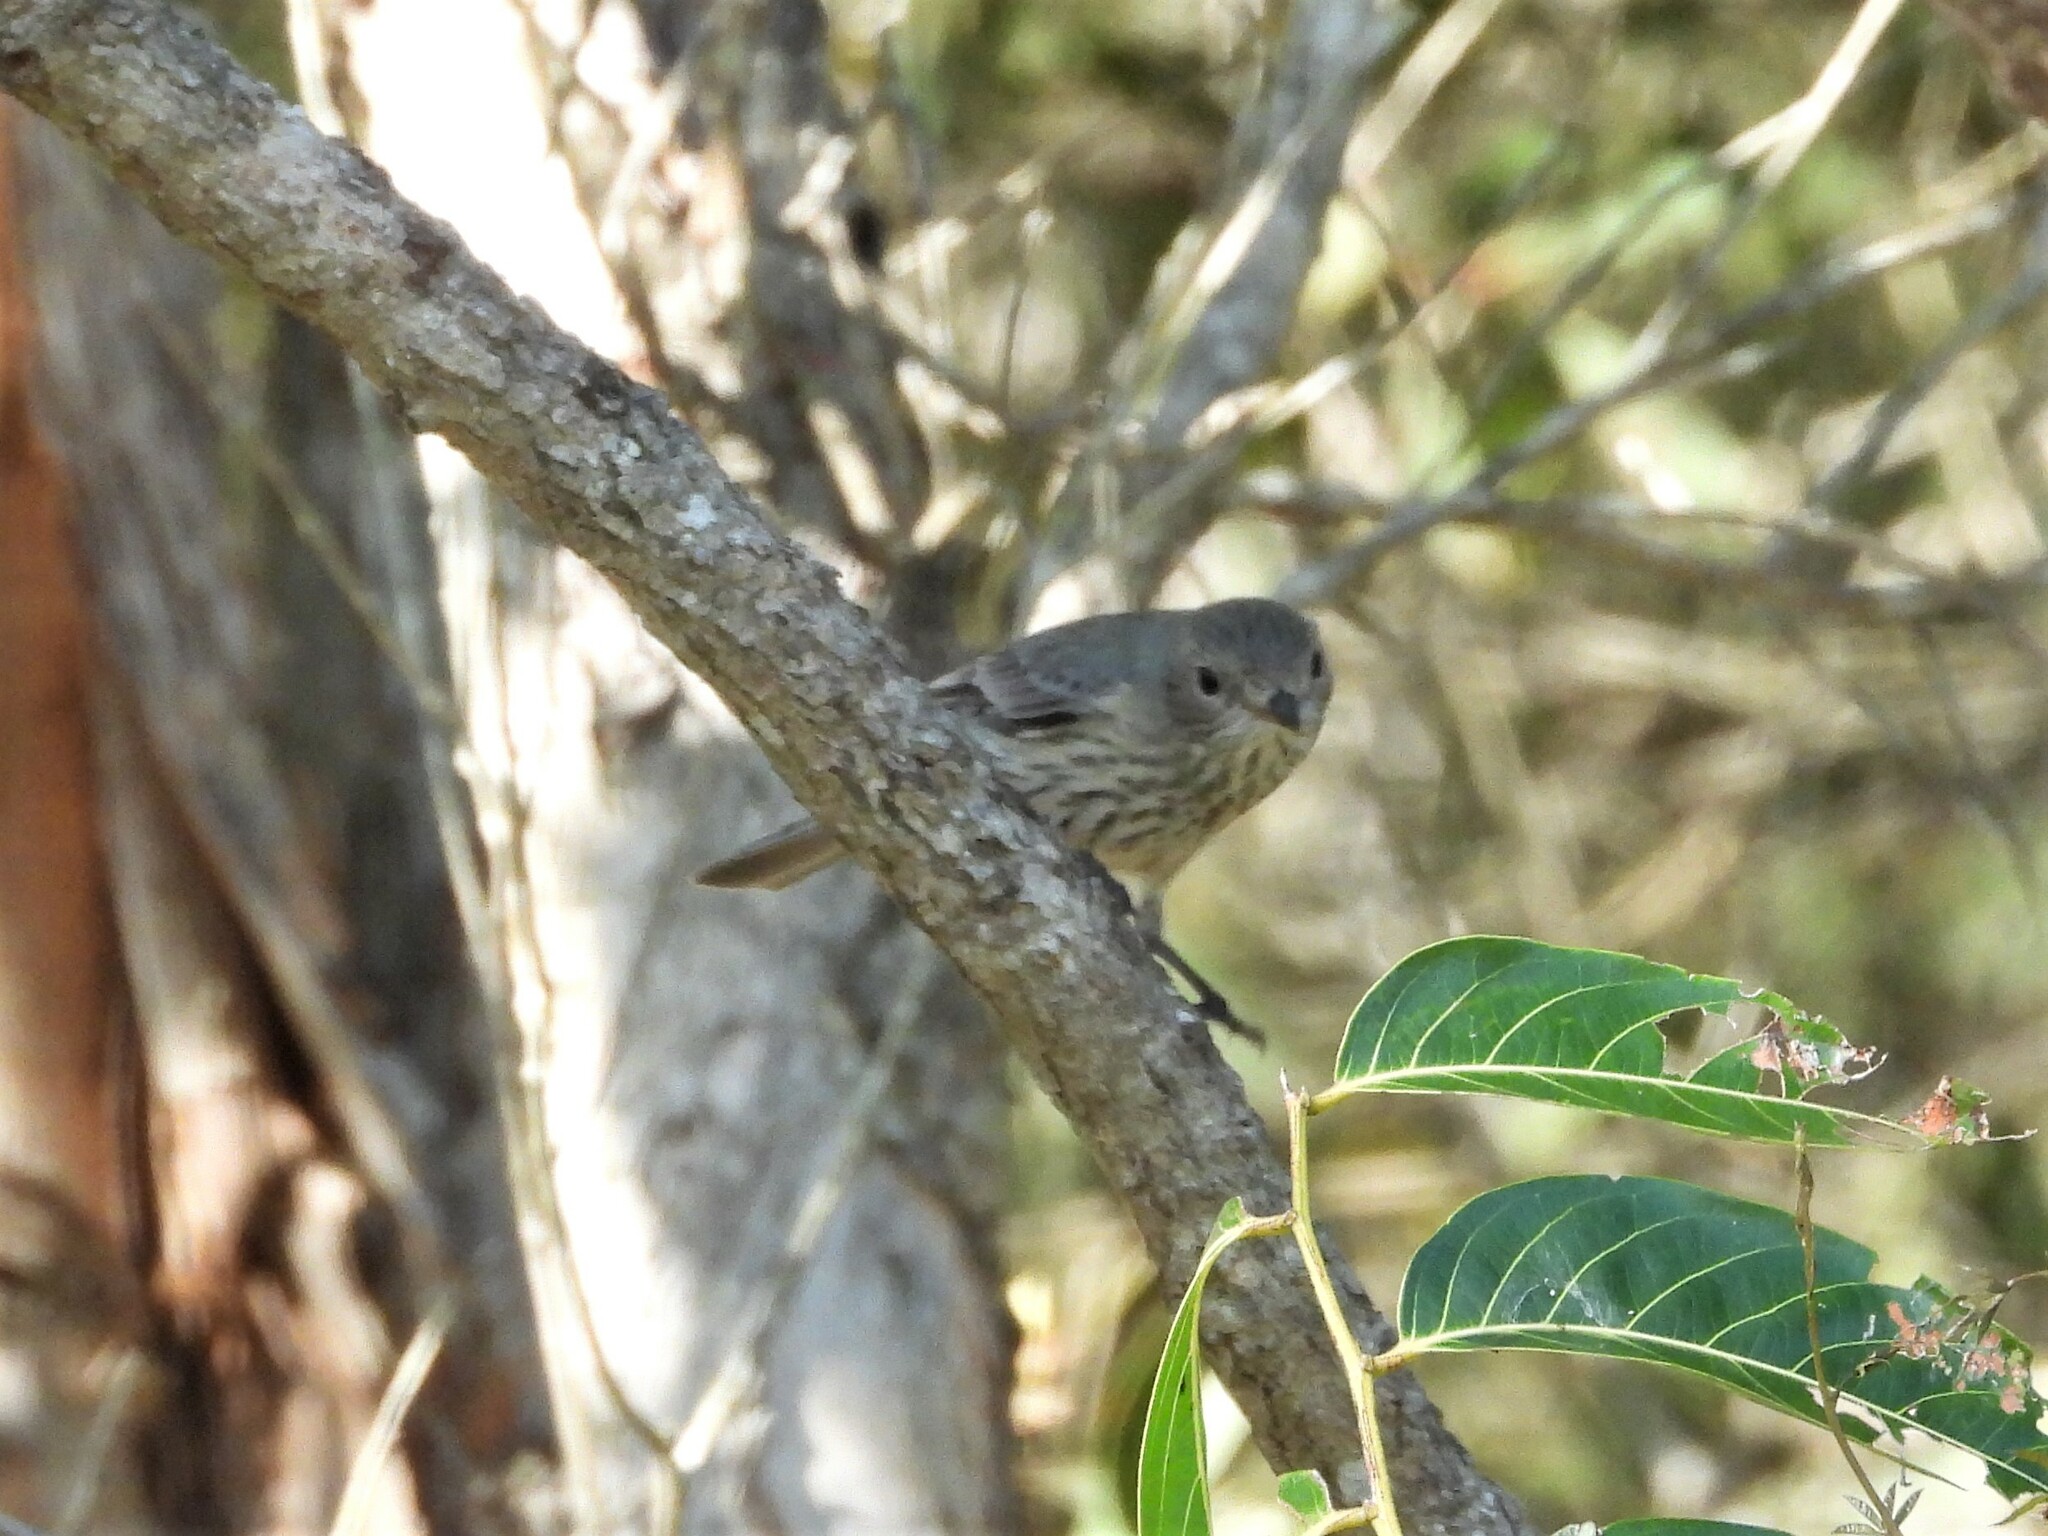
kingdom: Animalia
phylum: Chordata
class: Aves
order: Passeriformes
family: Pachycephalidae
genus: Pachycephala
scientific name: Pachycephala rufiventris
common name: Rufous whistler
